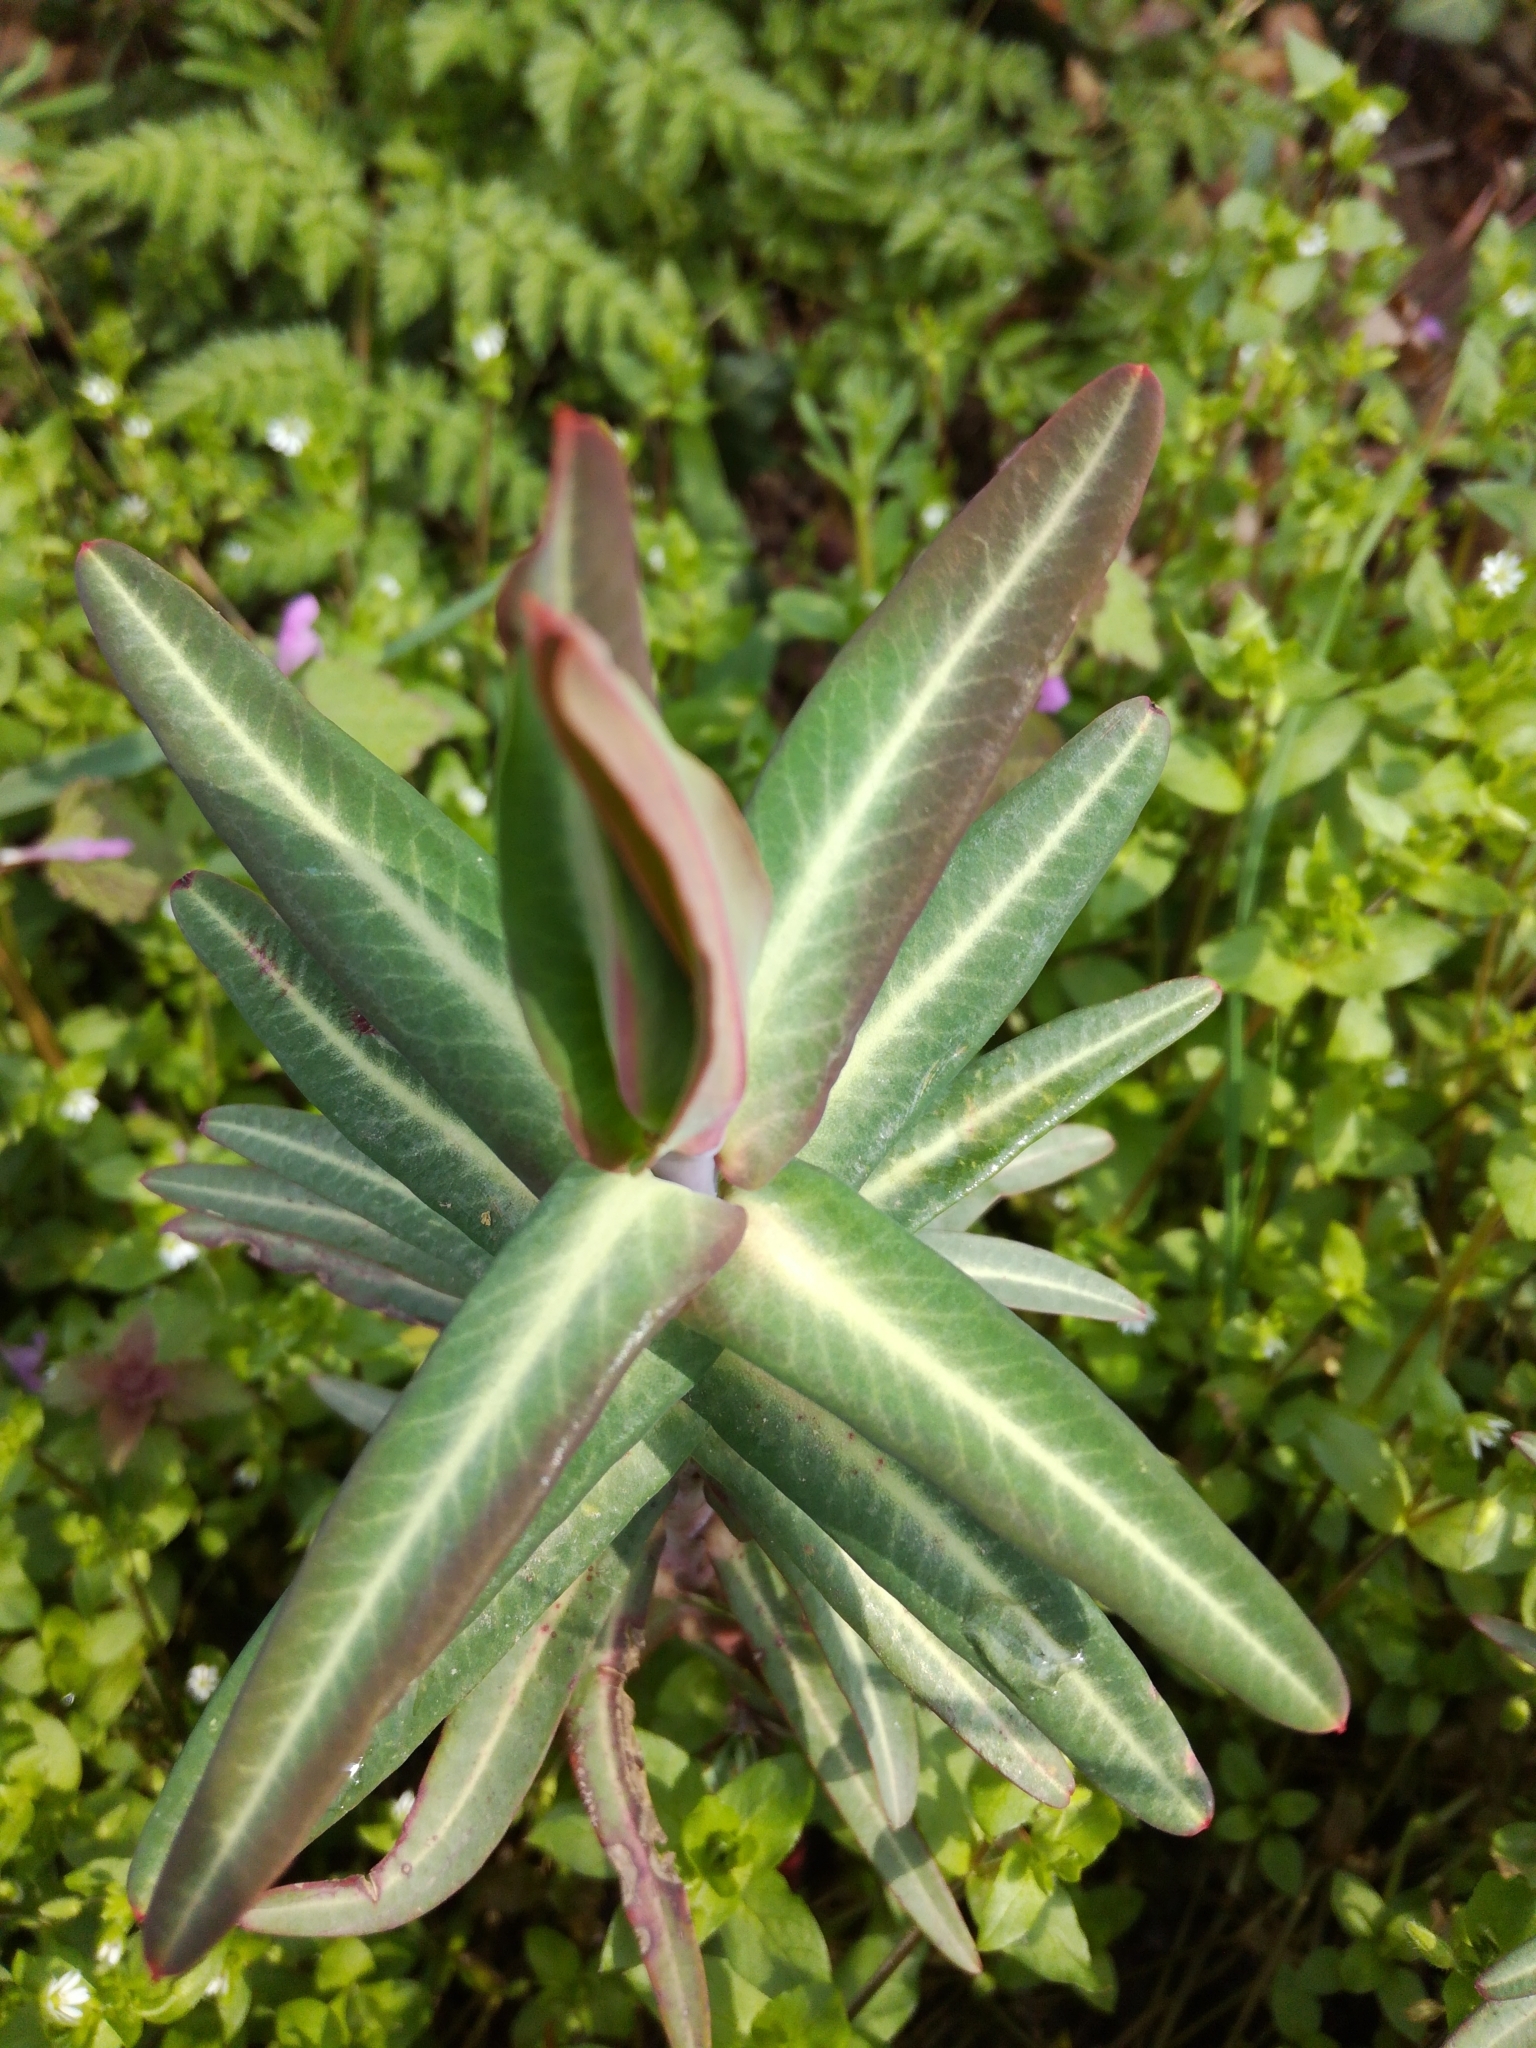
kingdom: Plantae
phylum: Tracheophyta
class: Magnoliopsida
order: Malpighiales
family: Euphorbiaceae
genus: Euphorbia
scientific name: Euphorbia lathyris
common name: Caper spurge
